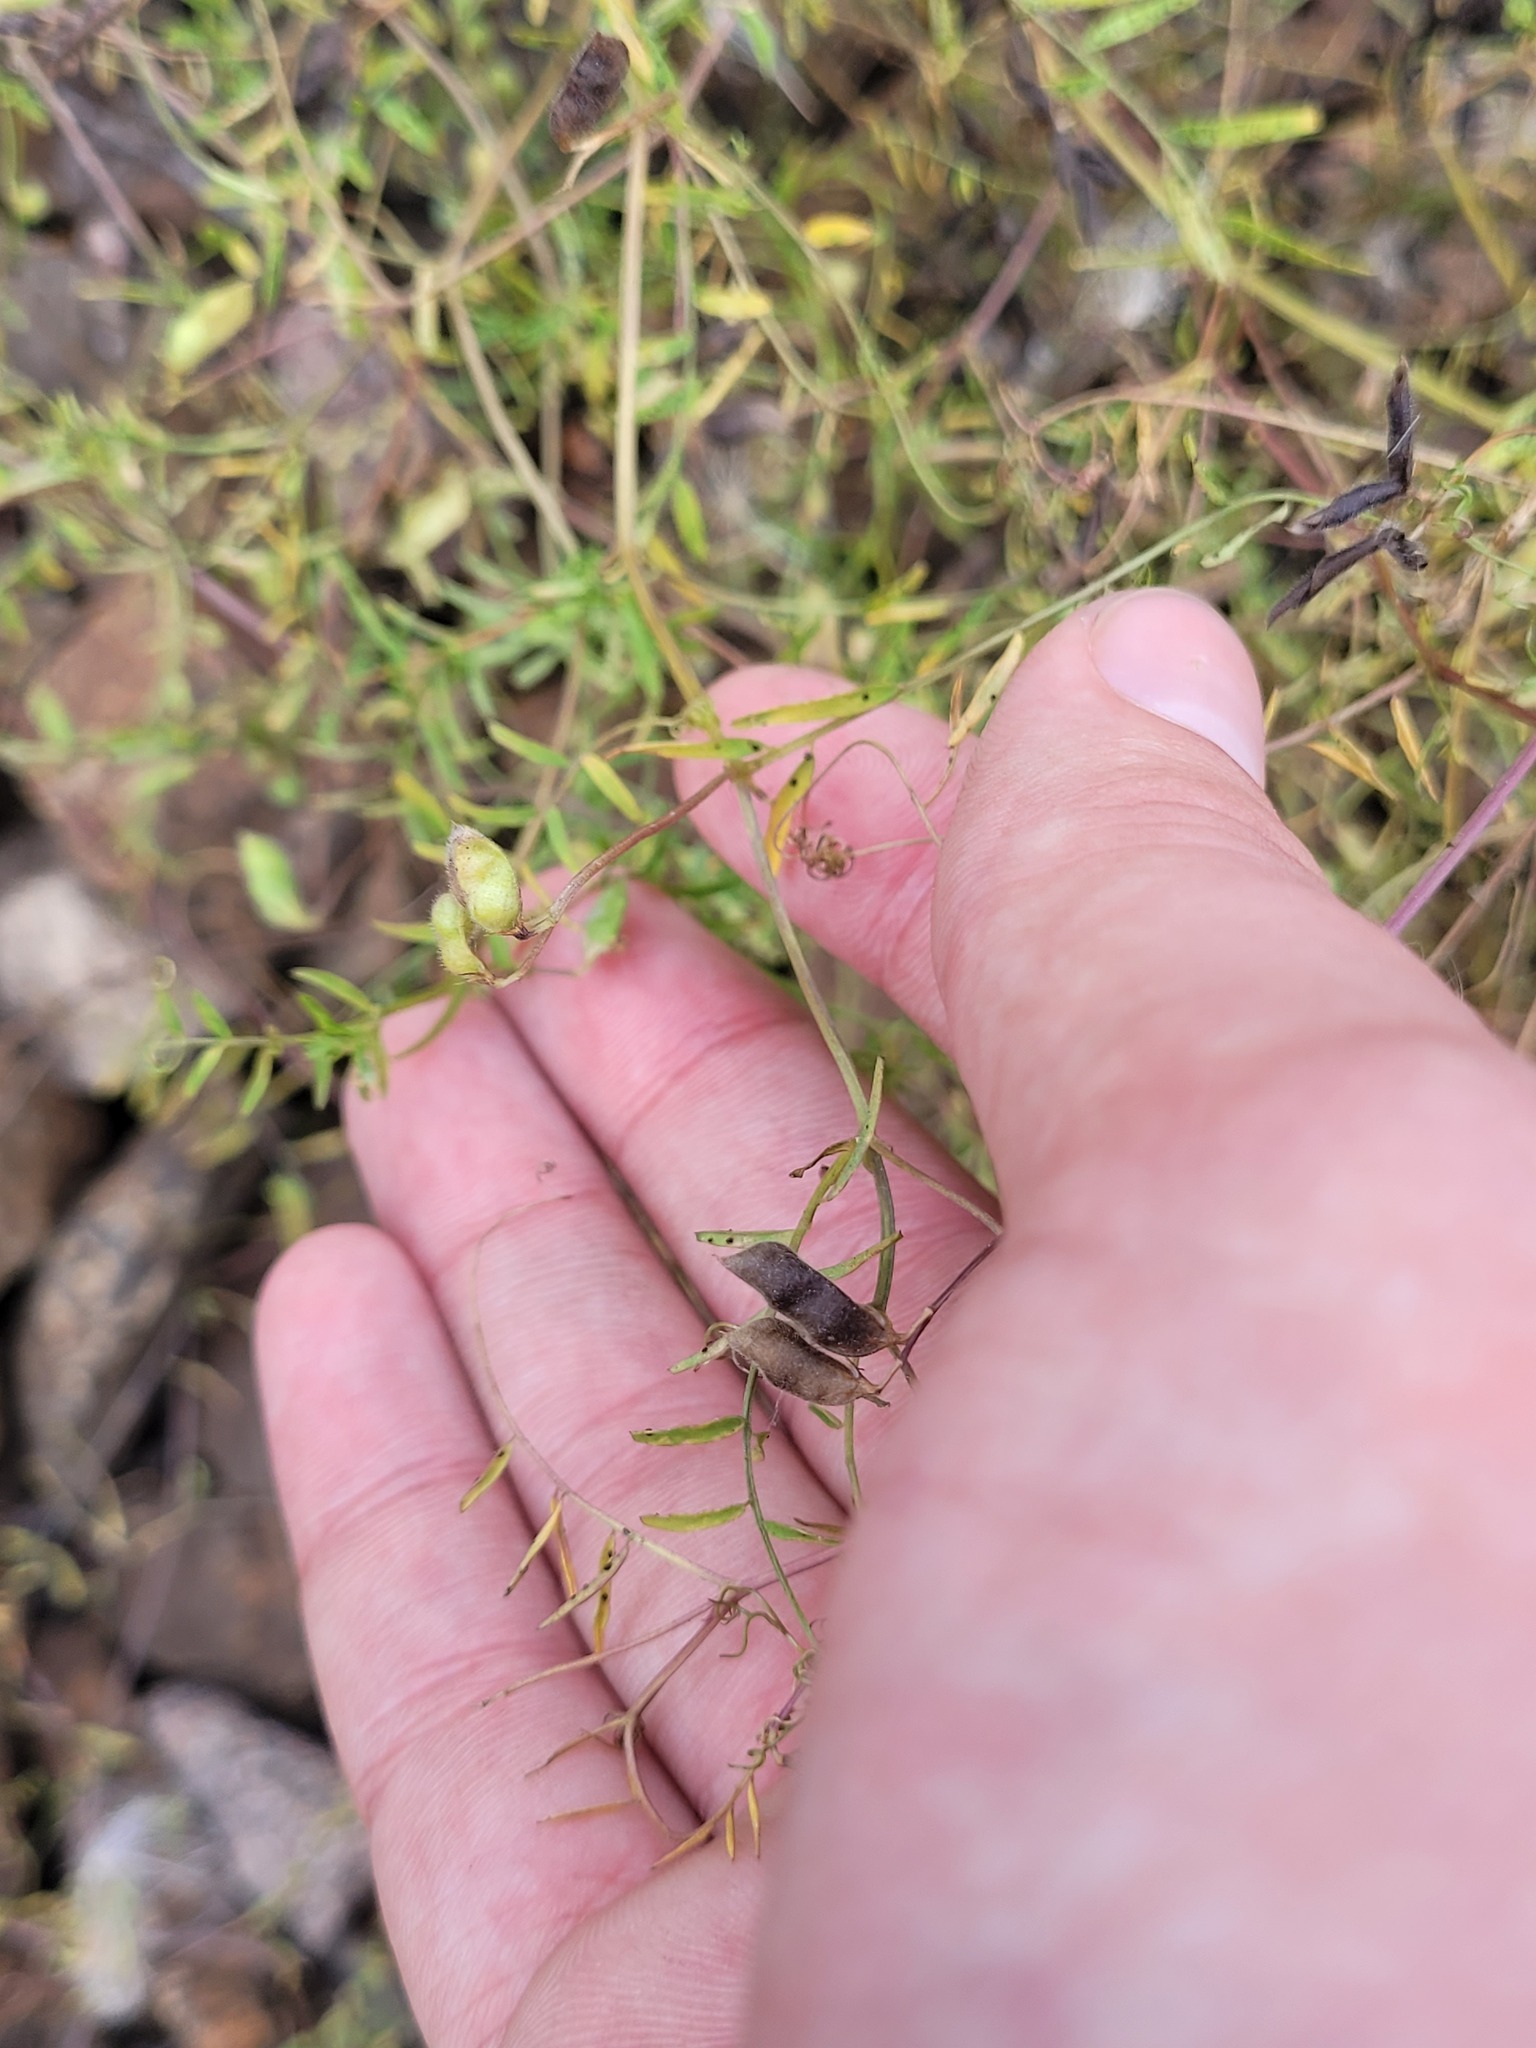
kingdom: Plantae
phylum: Tracheophyta
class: Magnoliopsida
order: Fabales
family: Fabaceae
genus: Vicia
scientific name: Vicia hirsuta
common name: Tiny vetch
